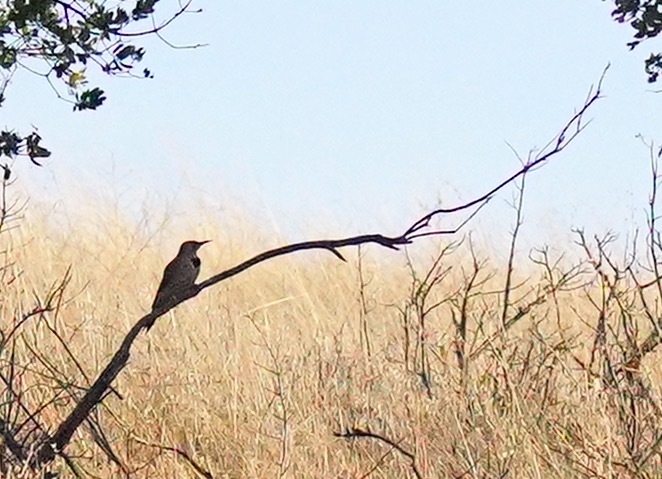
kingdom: Animalia
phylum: Chordata
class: Aves
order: Piciformes
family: Picidae
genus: Colaptes
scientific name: Colaptes auratus
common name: Northern flicker
